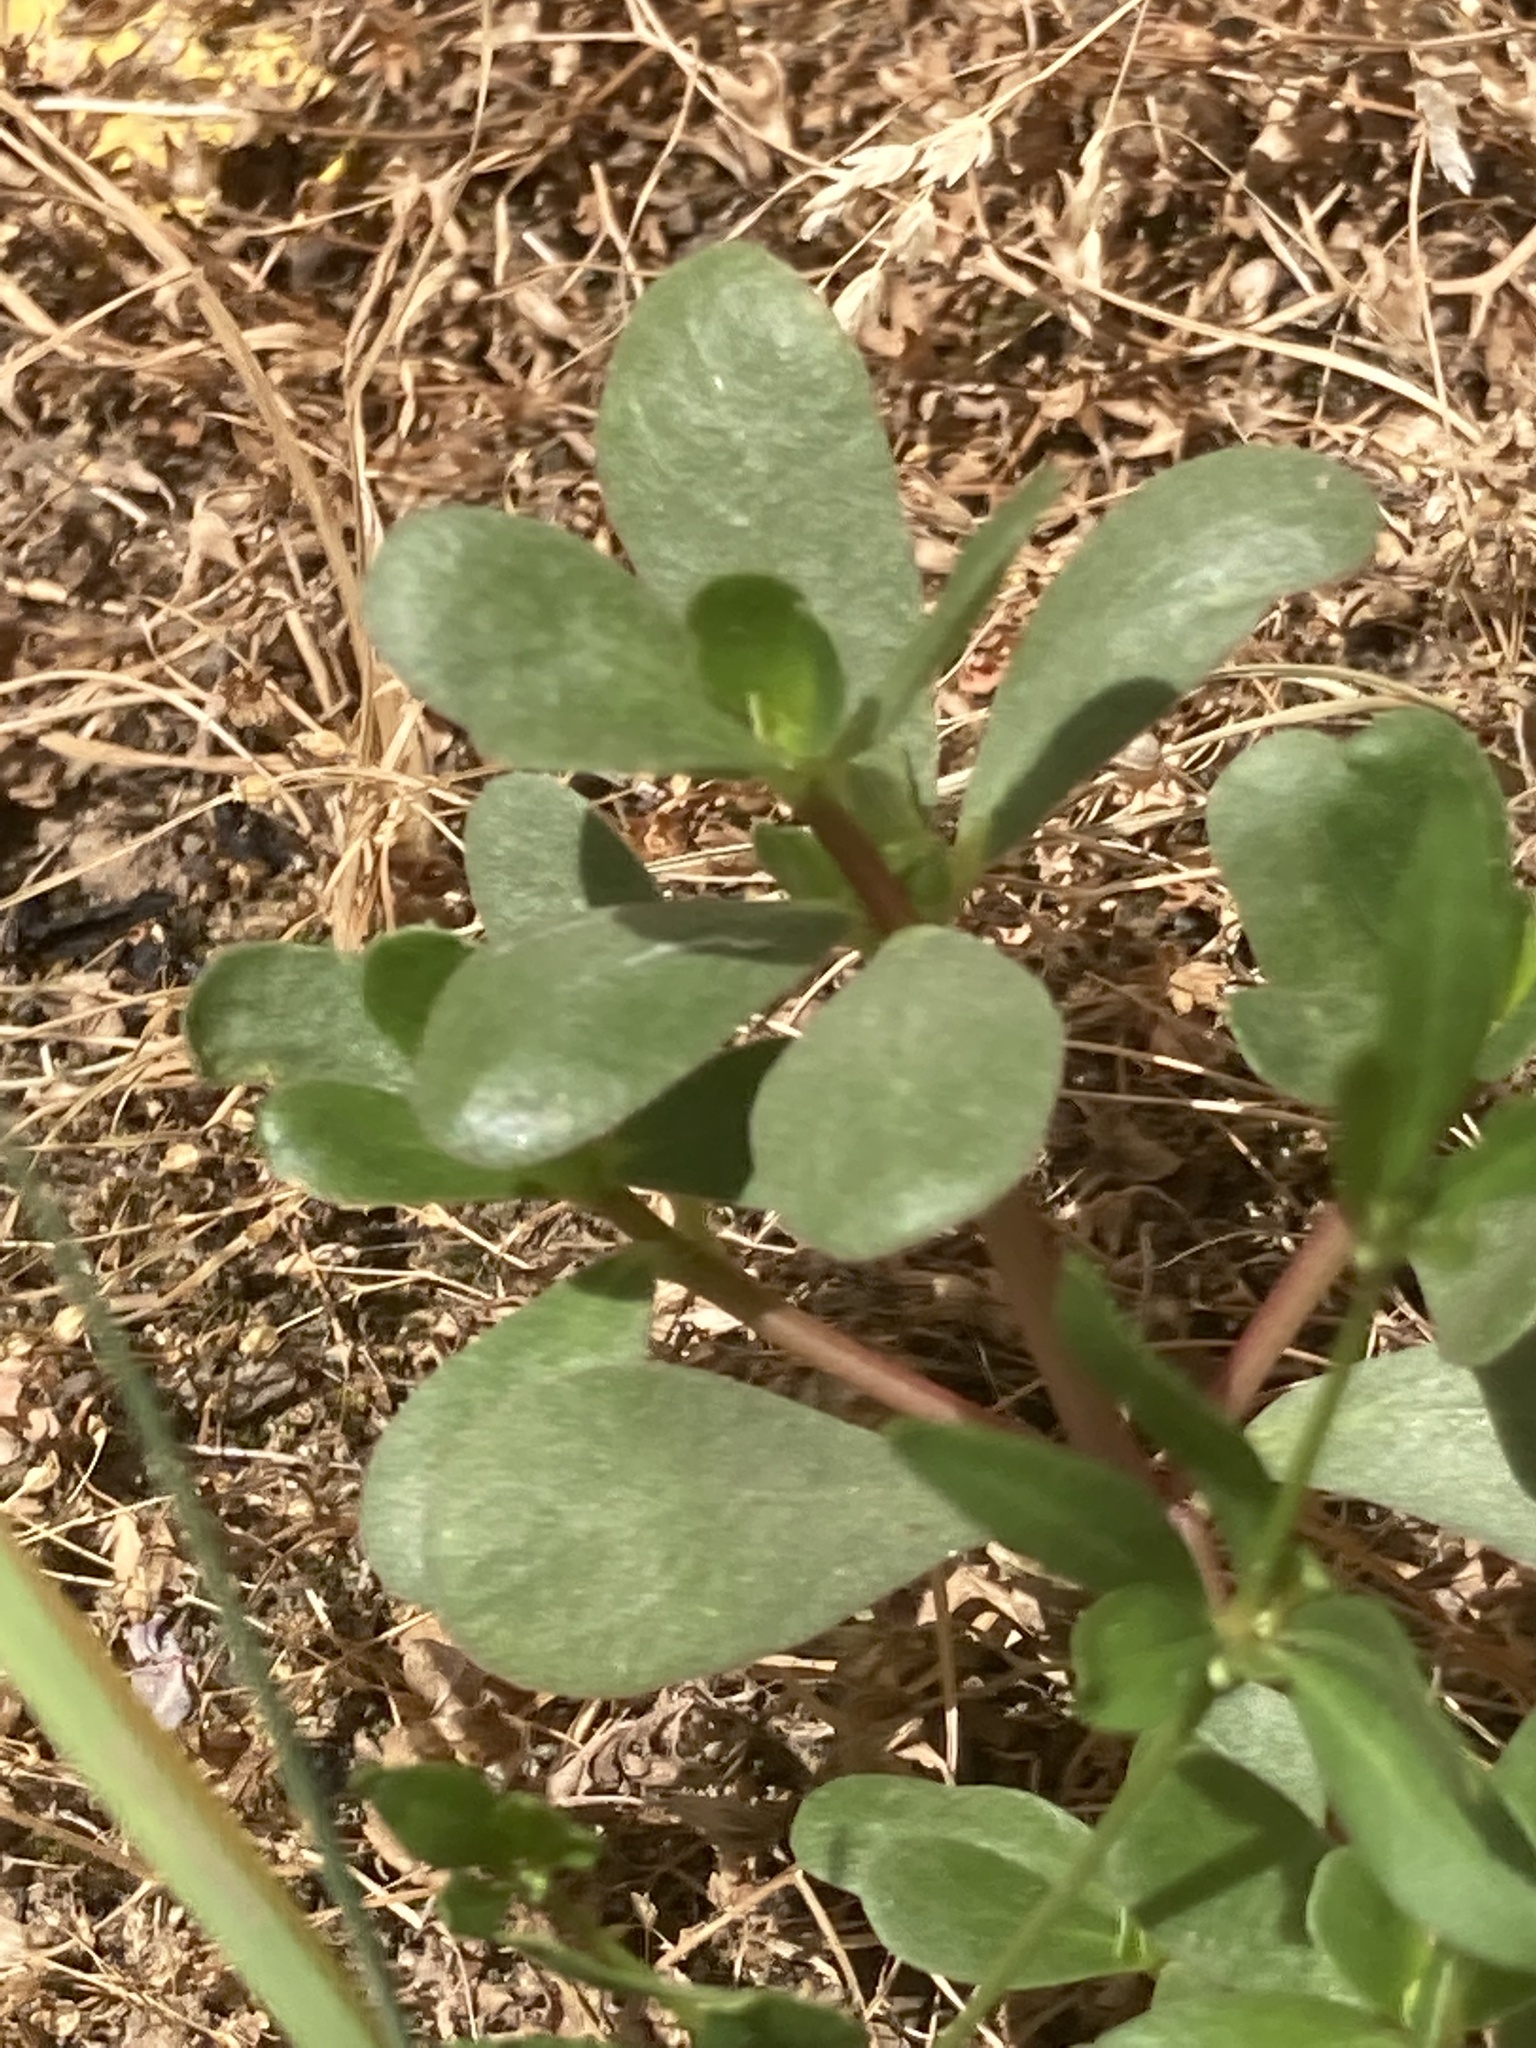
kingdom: Plantae
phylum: Tracheophyta
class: Magnoliopsida
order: Caryophyllales
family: Portulacaceae
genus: Portulaca
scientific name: Portulaca oleracea
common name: Common purslane
